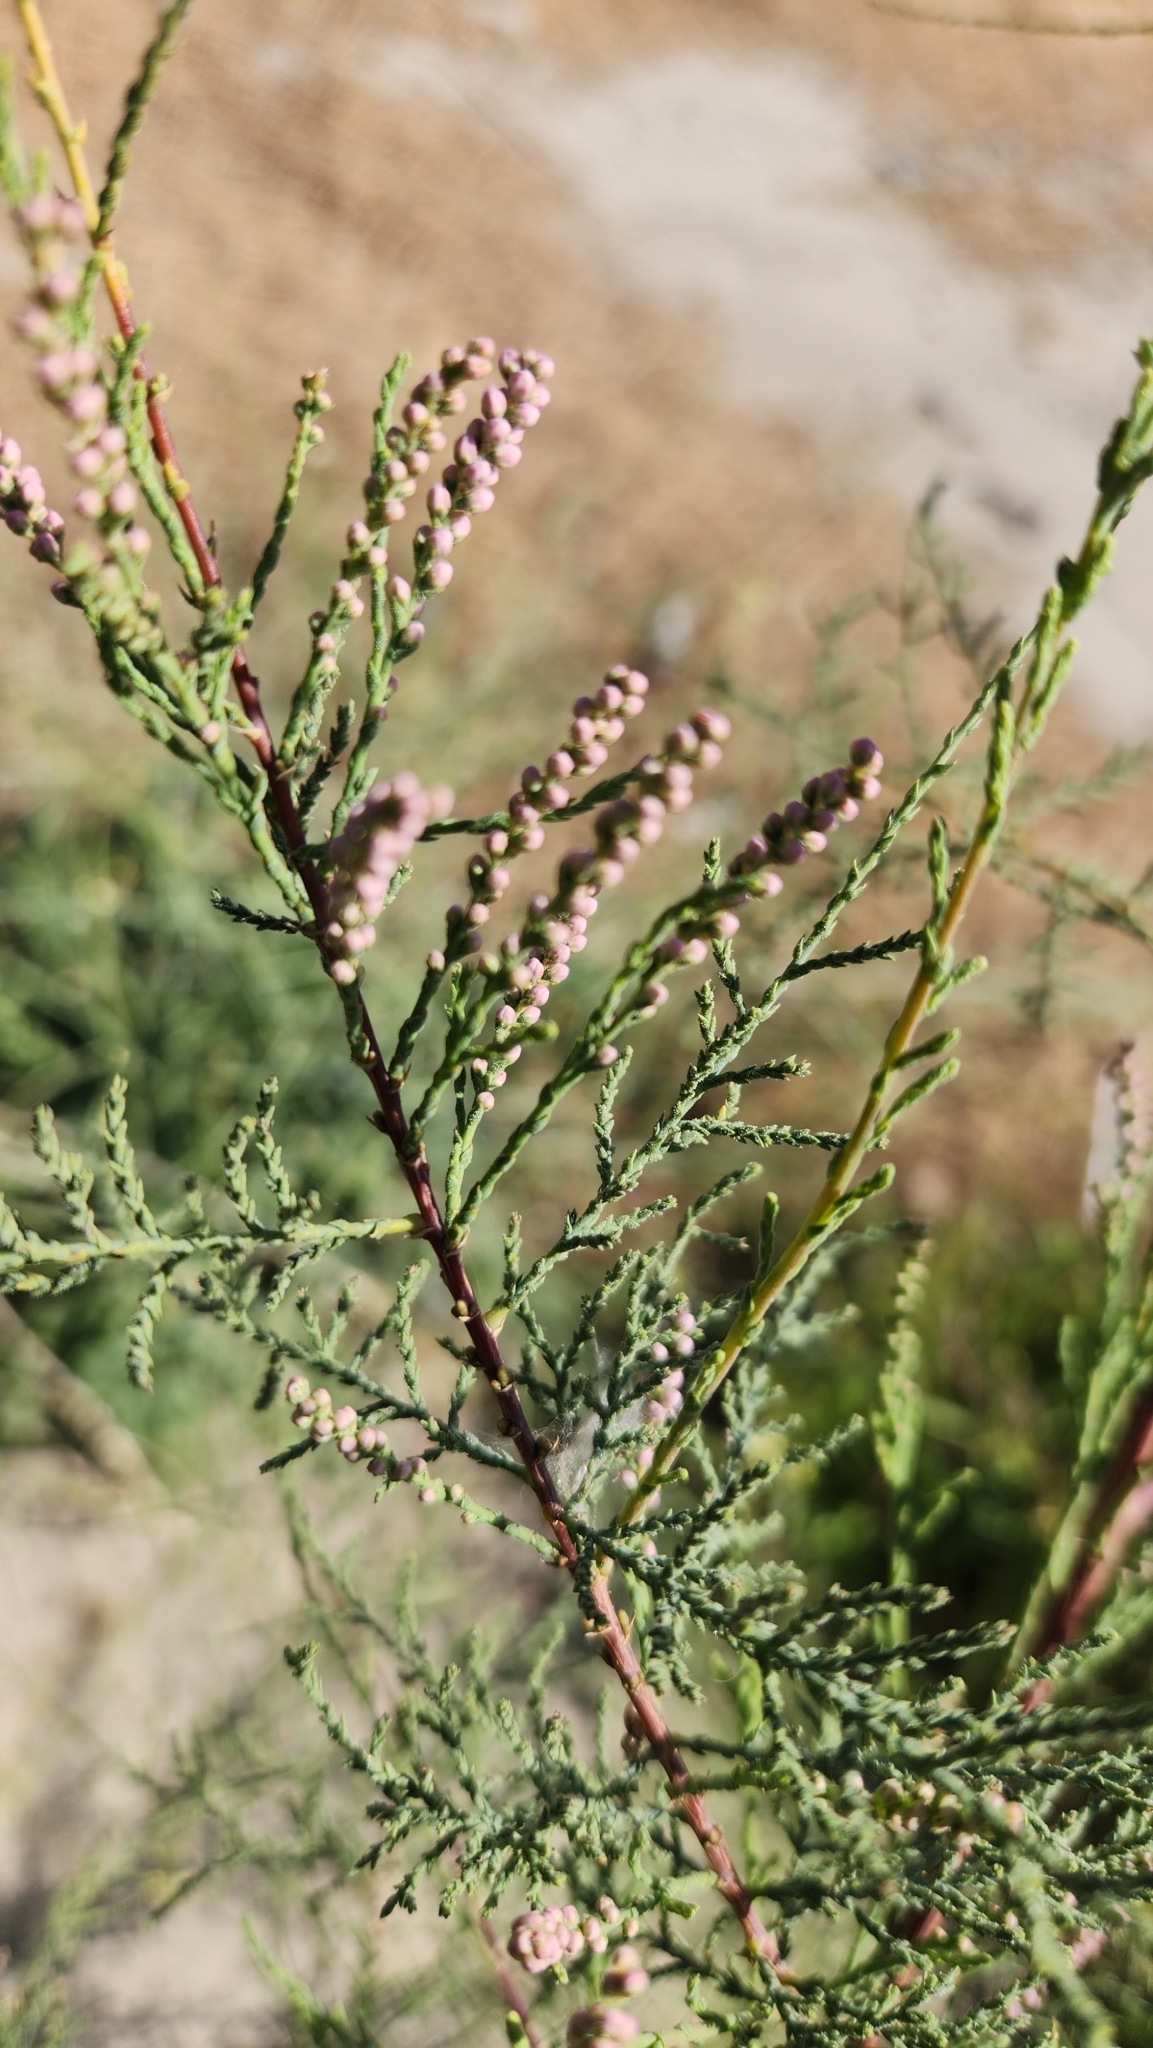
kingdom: Plantae
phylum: Tracheophyta
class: Magnoliopsida
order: Caryophyllales
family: Tamaricaceae
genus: Tamarix
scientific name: Tamarix ramosissima
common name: Pink tamarisk
